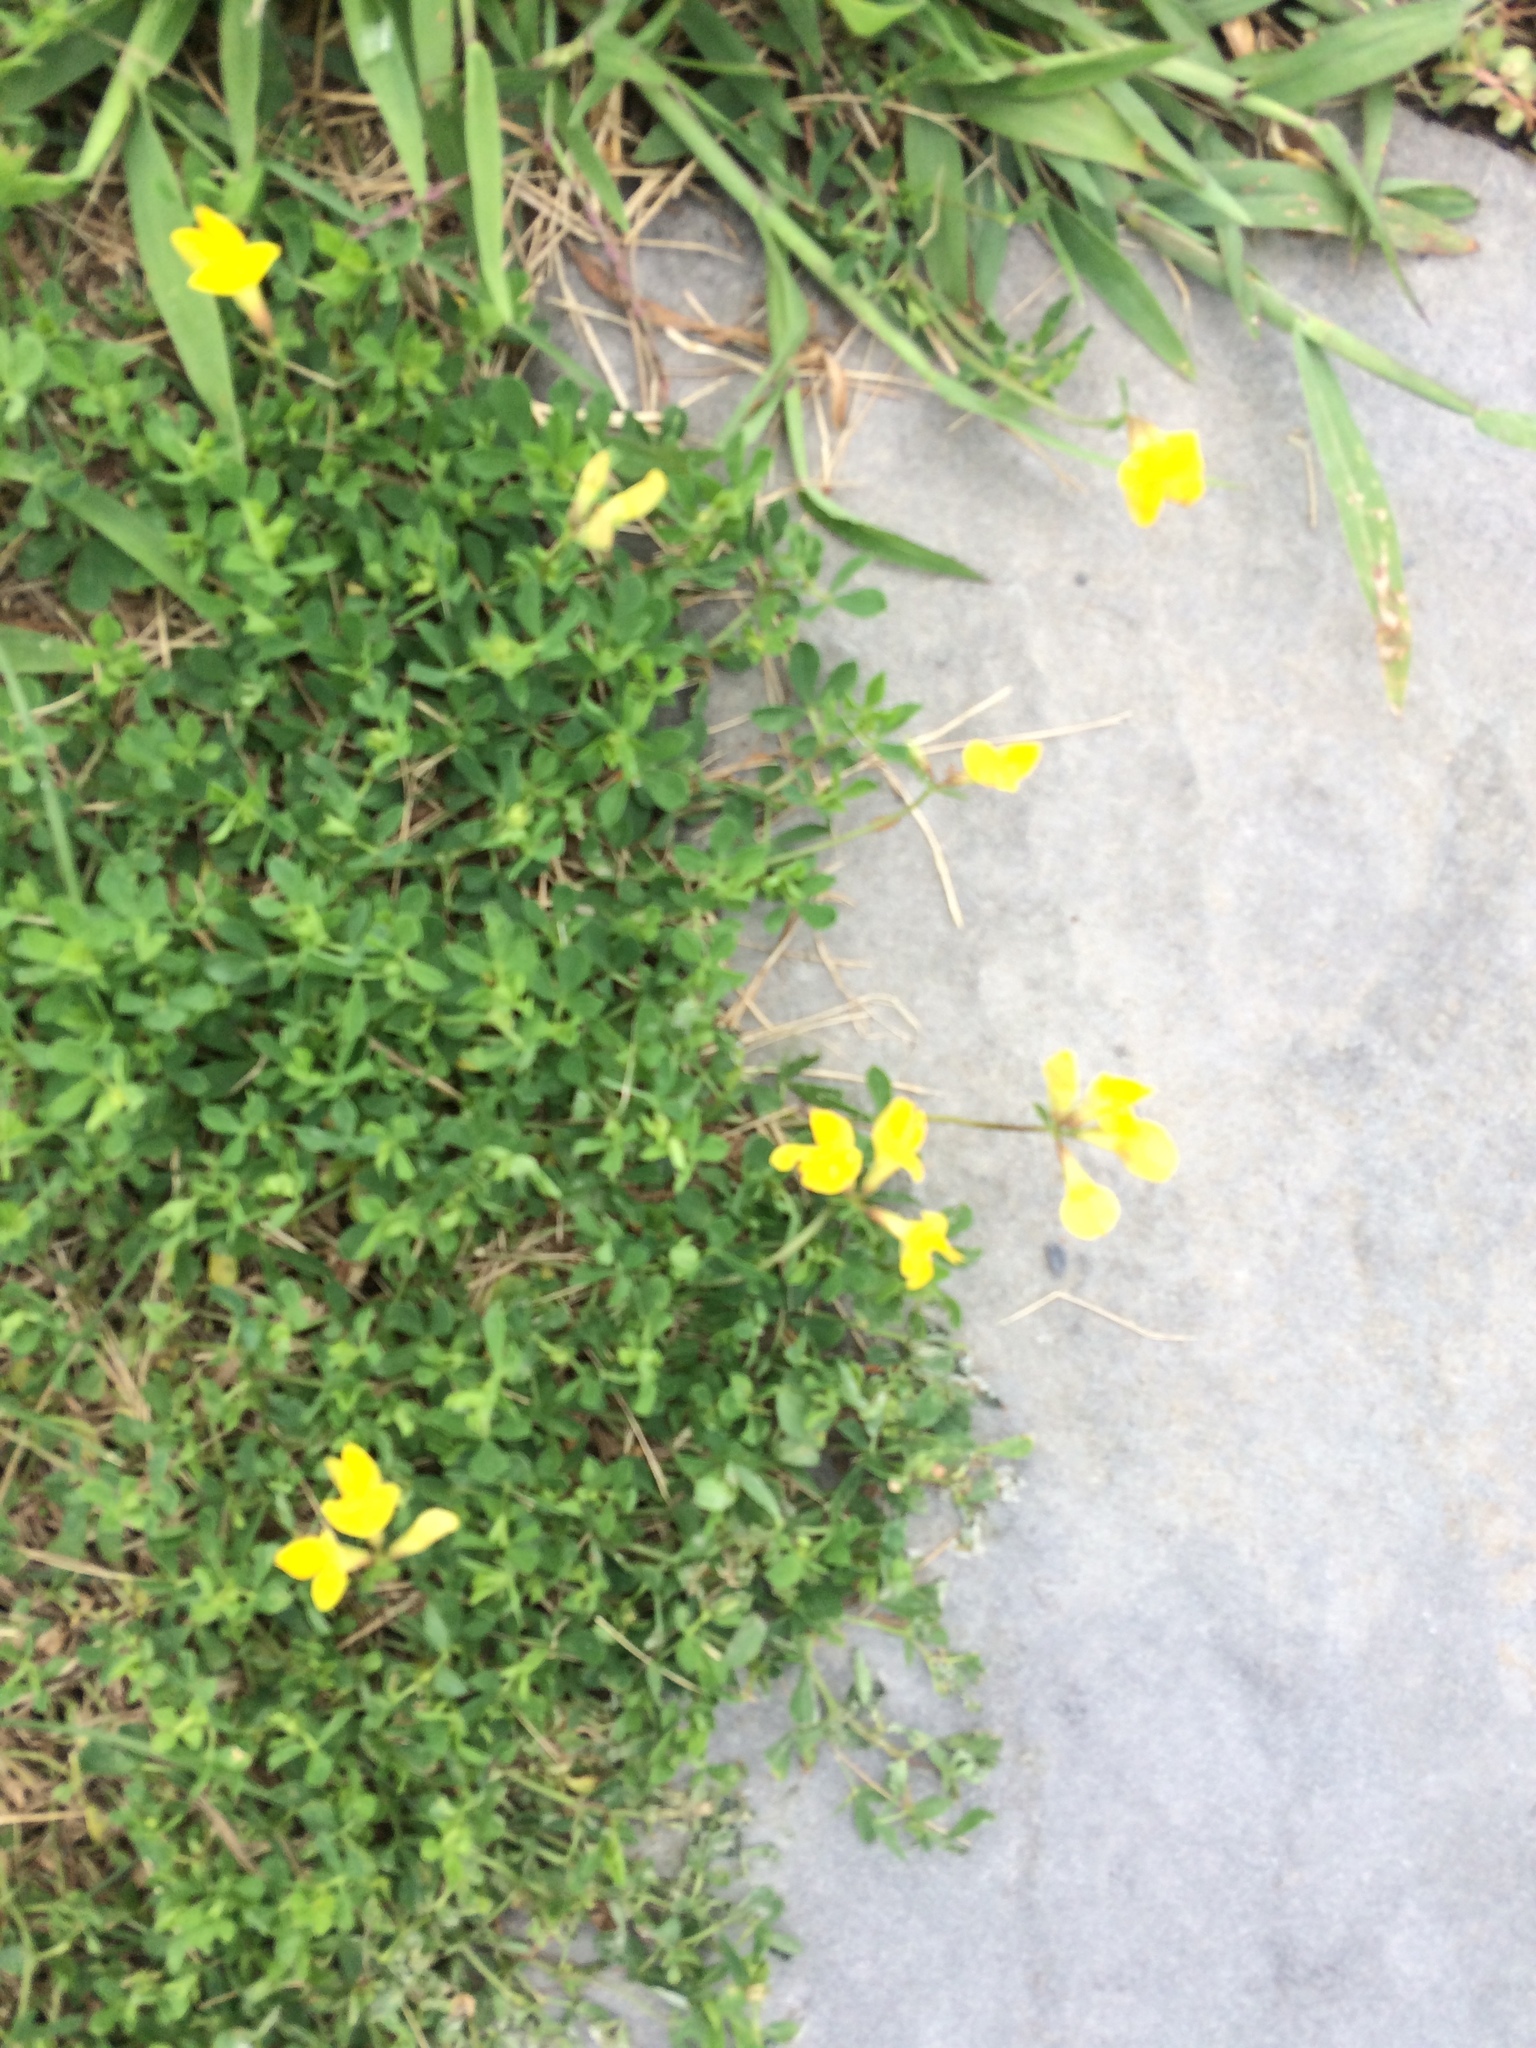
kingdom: Plantae
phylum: Tracheophyta
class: Magnoliopsida
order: Fabales
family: Fabaceae
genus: Lotus
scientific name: Lotus corniculatus
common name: Common bird's-foot-trefoil
